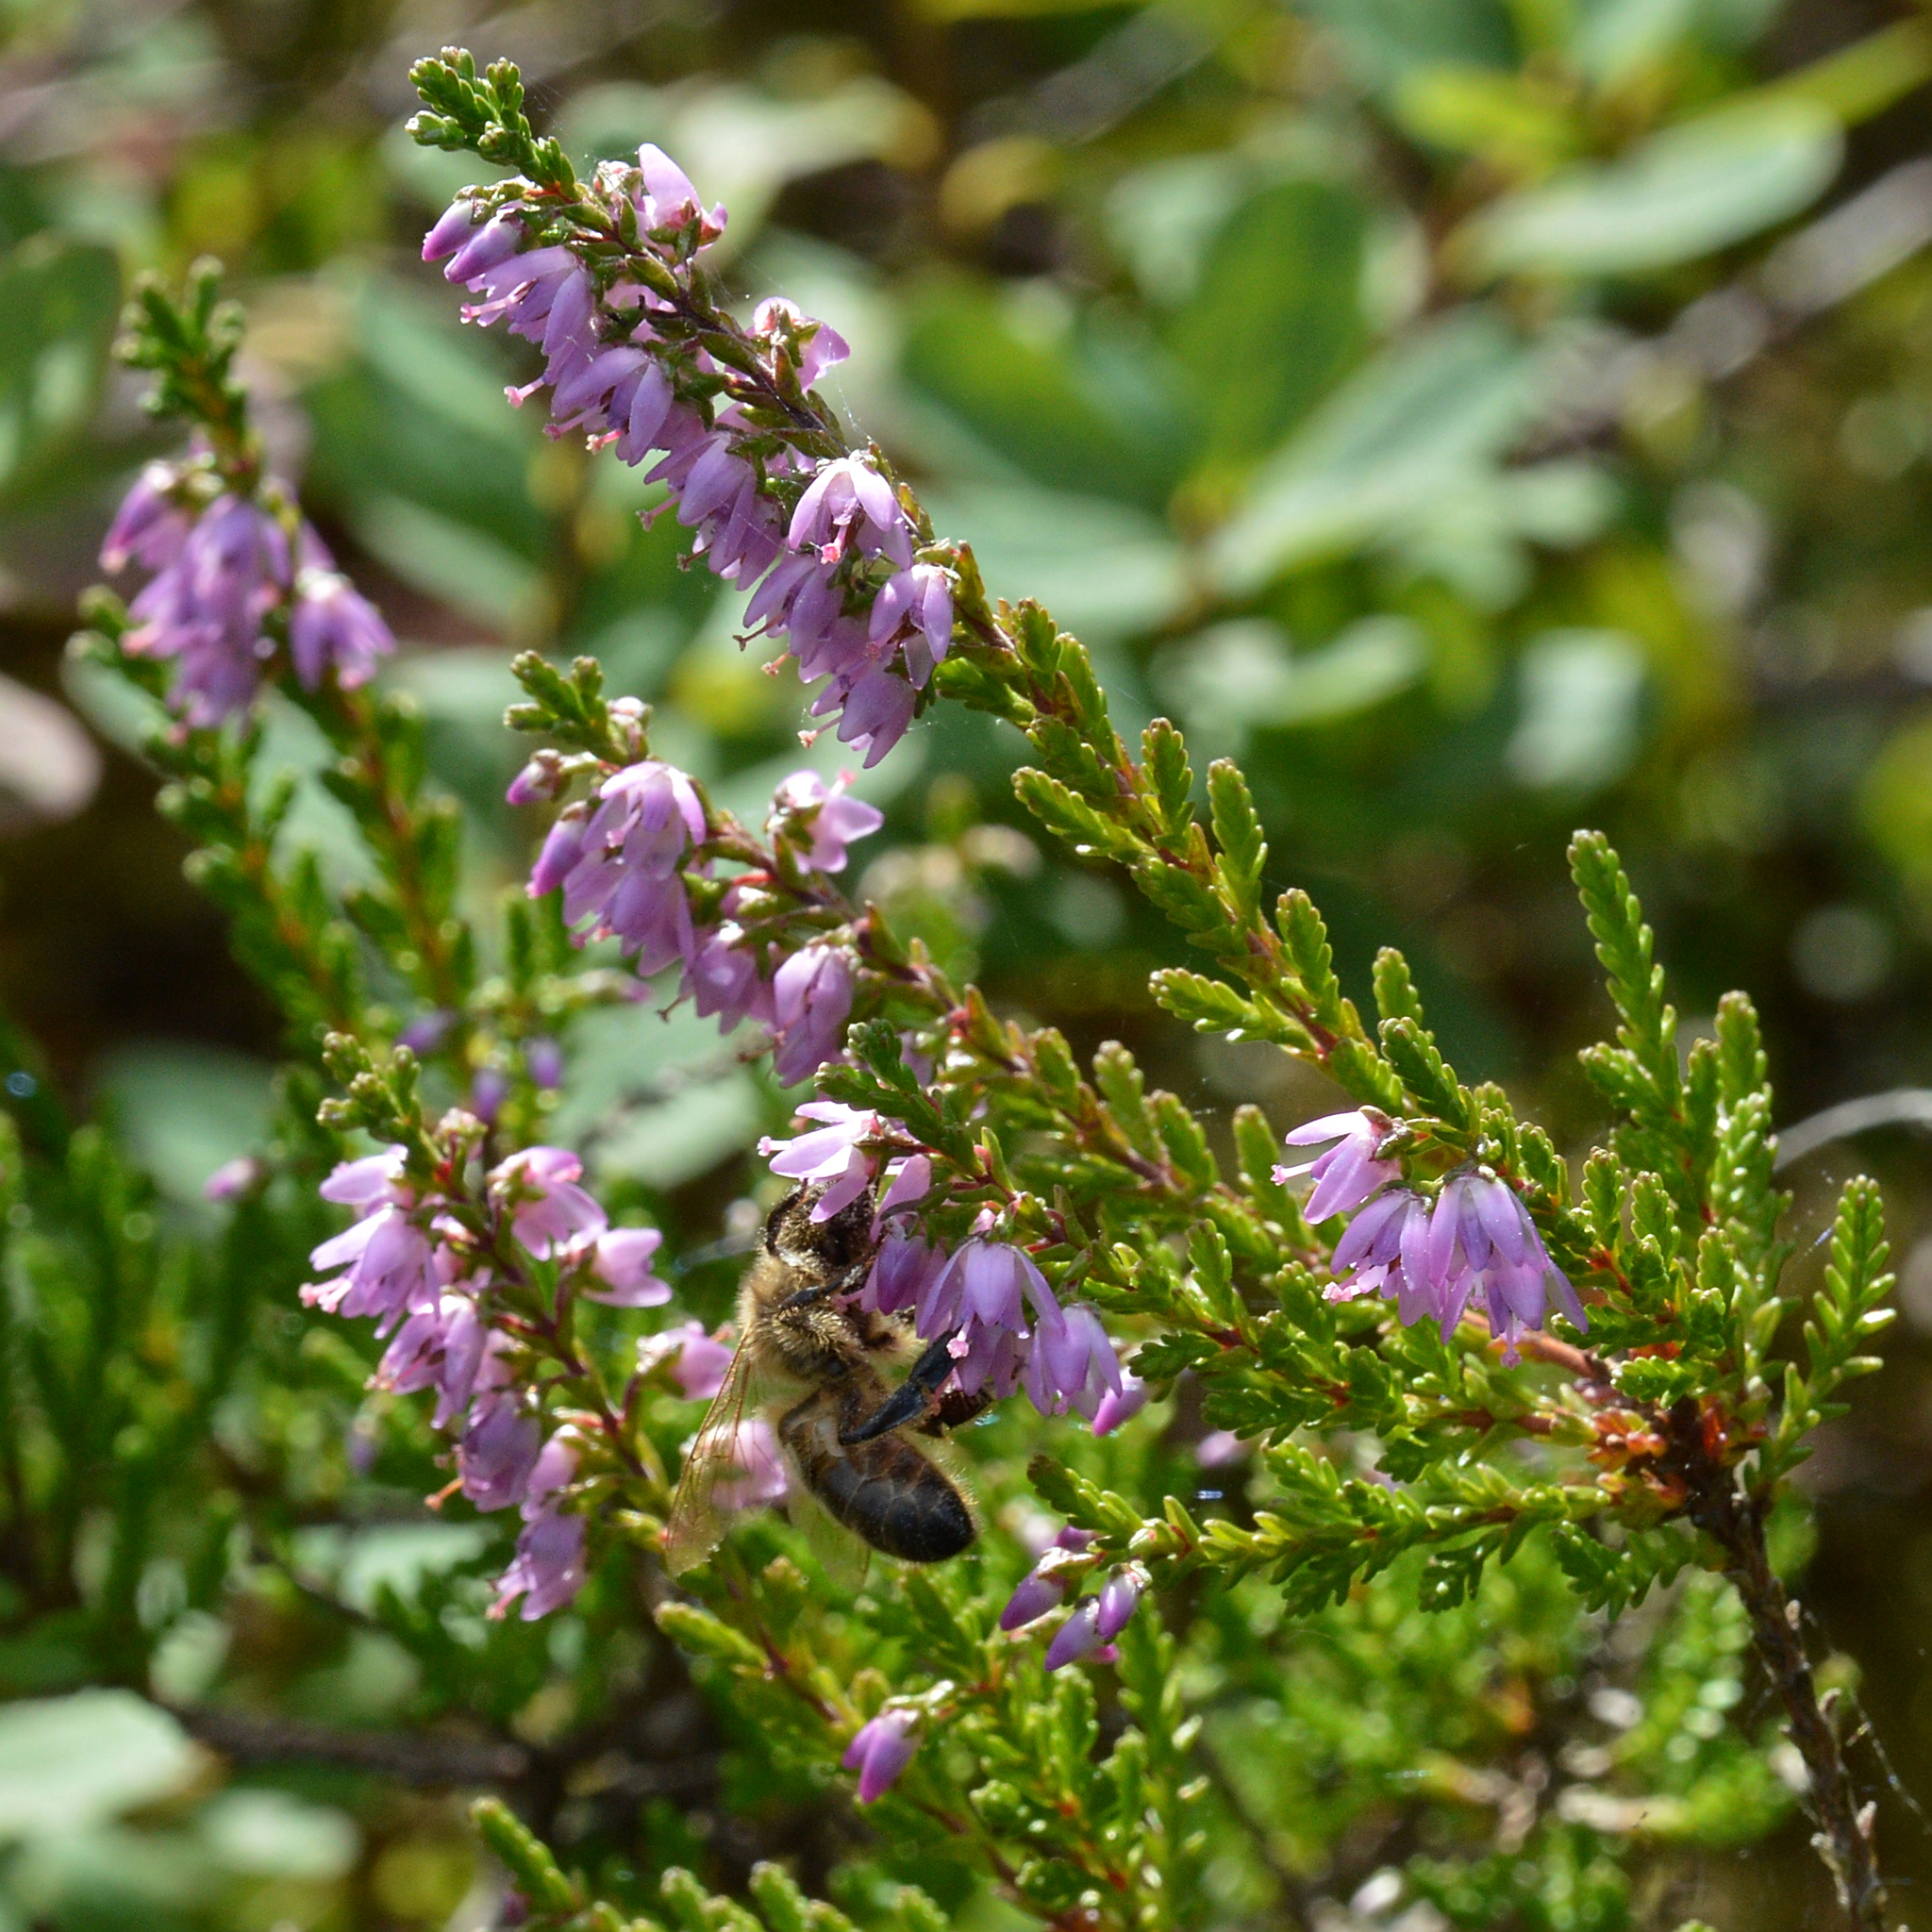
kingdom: Plantae
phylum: Tracheophyta
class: Magnoliopsida
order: Ericales
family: Ericaceae
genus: Calluna
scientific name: Calluna vulgaris
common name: Heather
